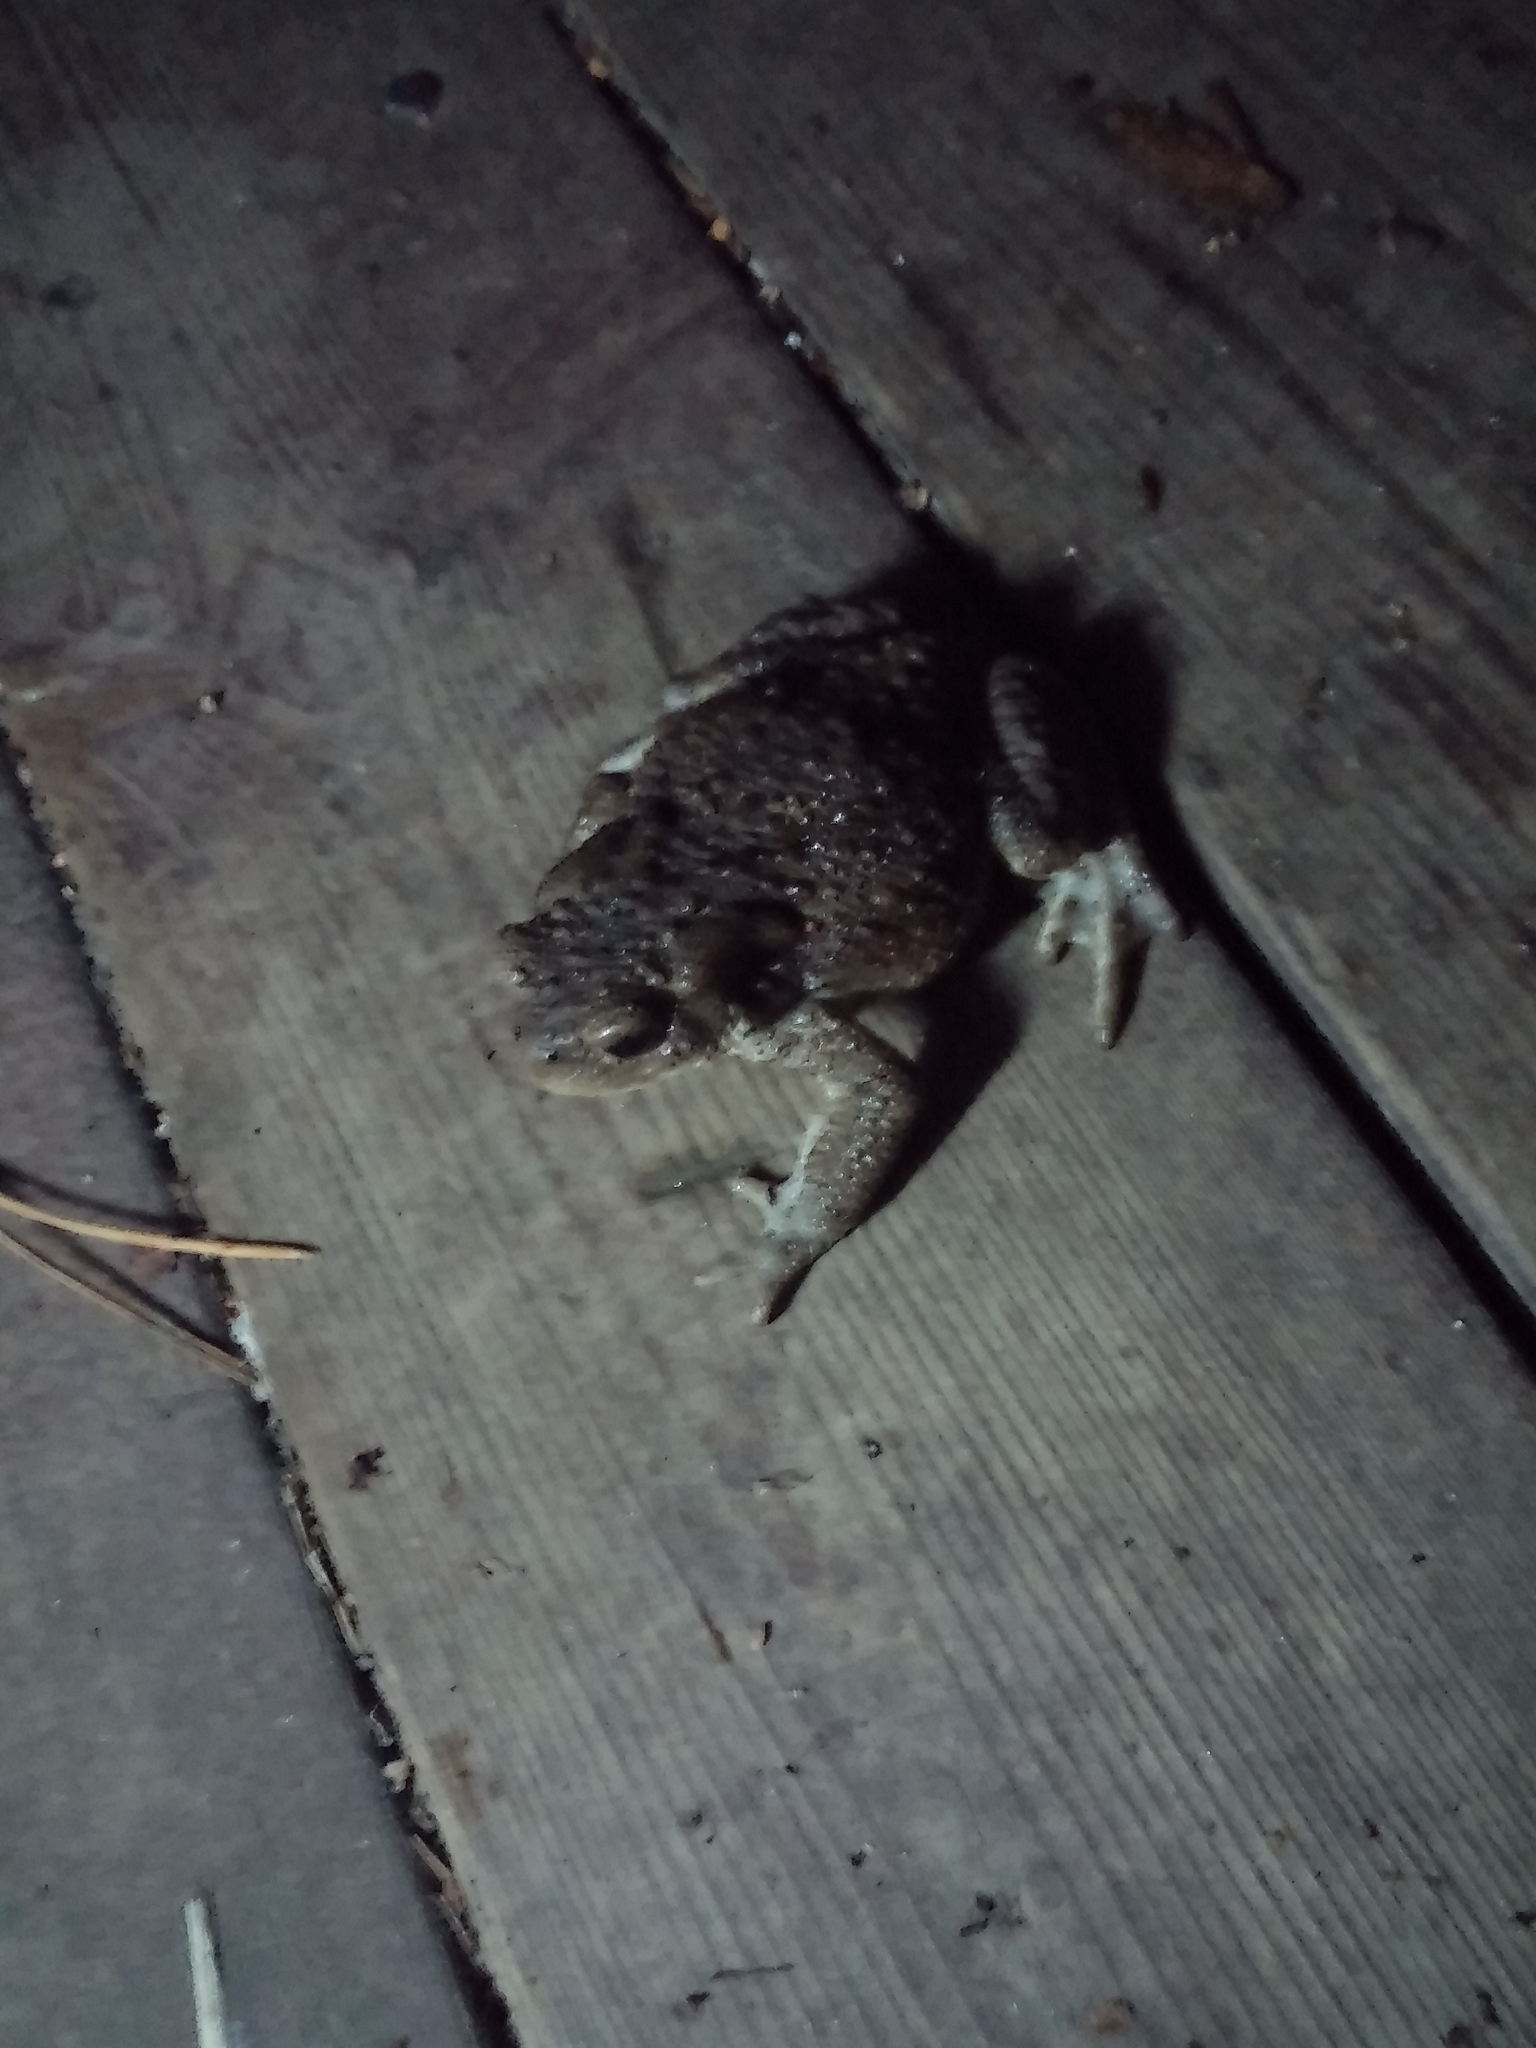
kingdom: Animalia
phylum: Chordata
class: Amphibia
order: Anura
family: Bufonidae
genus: Bufo
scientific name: Bufo bufo
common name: Common toad
